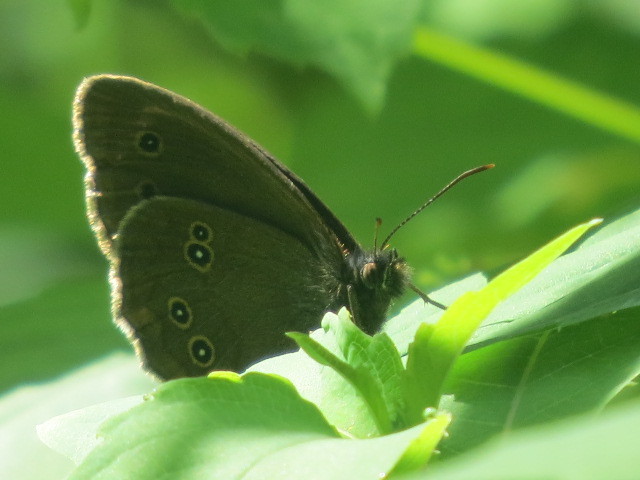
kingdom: Animalia
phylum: Arthropoda
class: Insecta
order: Lepidoptera
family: Nymphalidae
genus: Aphantopus
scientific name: Aphantopus hyperantus
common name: Ringlet
